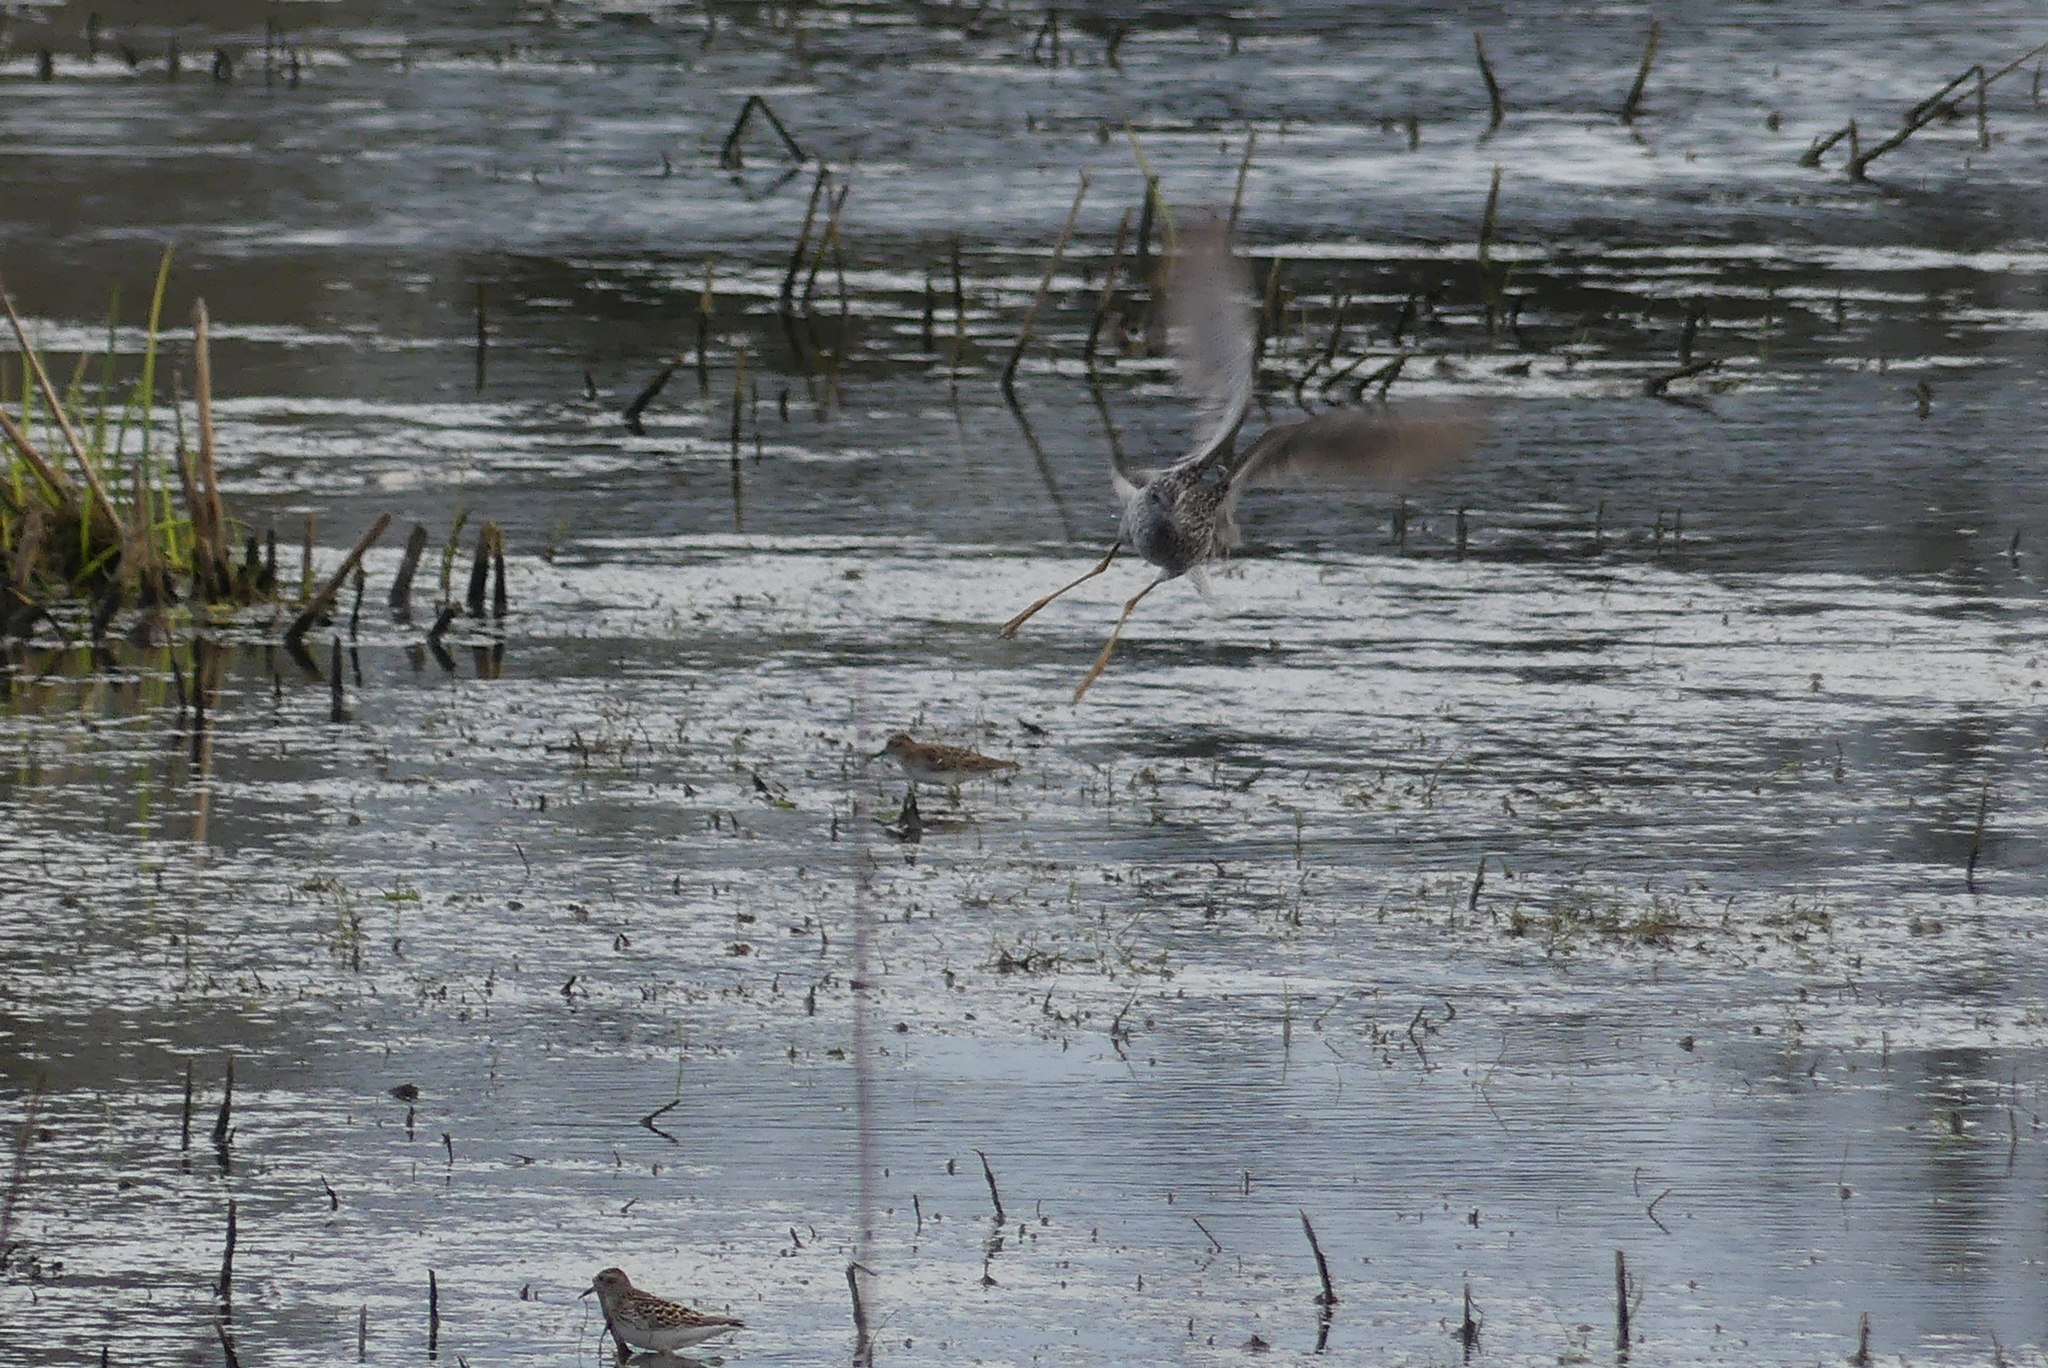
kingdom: Animalia
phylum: Chordata
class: Aves
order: Charadriiformes
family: Scolopacidae
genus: Tringa
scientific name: Tringa melanoleuca
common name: Greater yellowlegs
